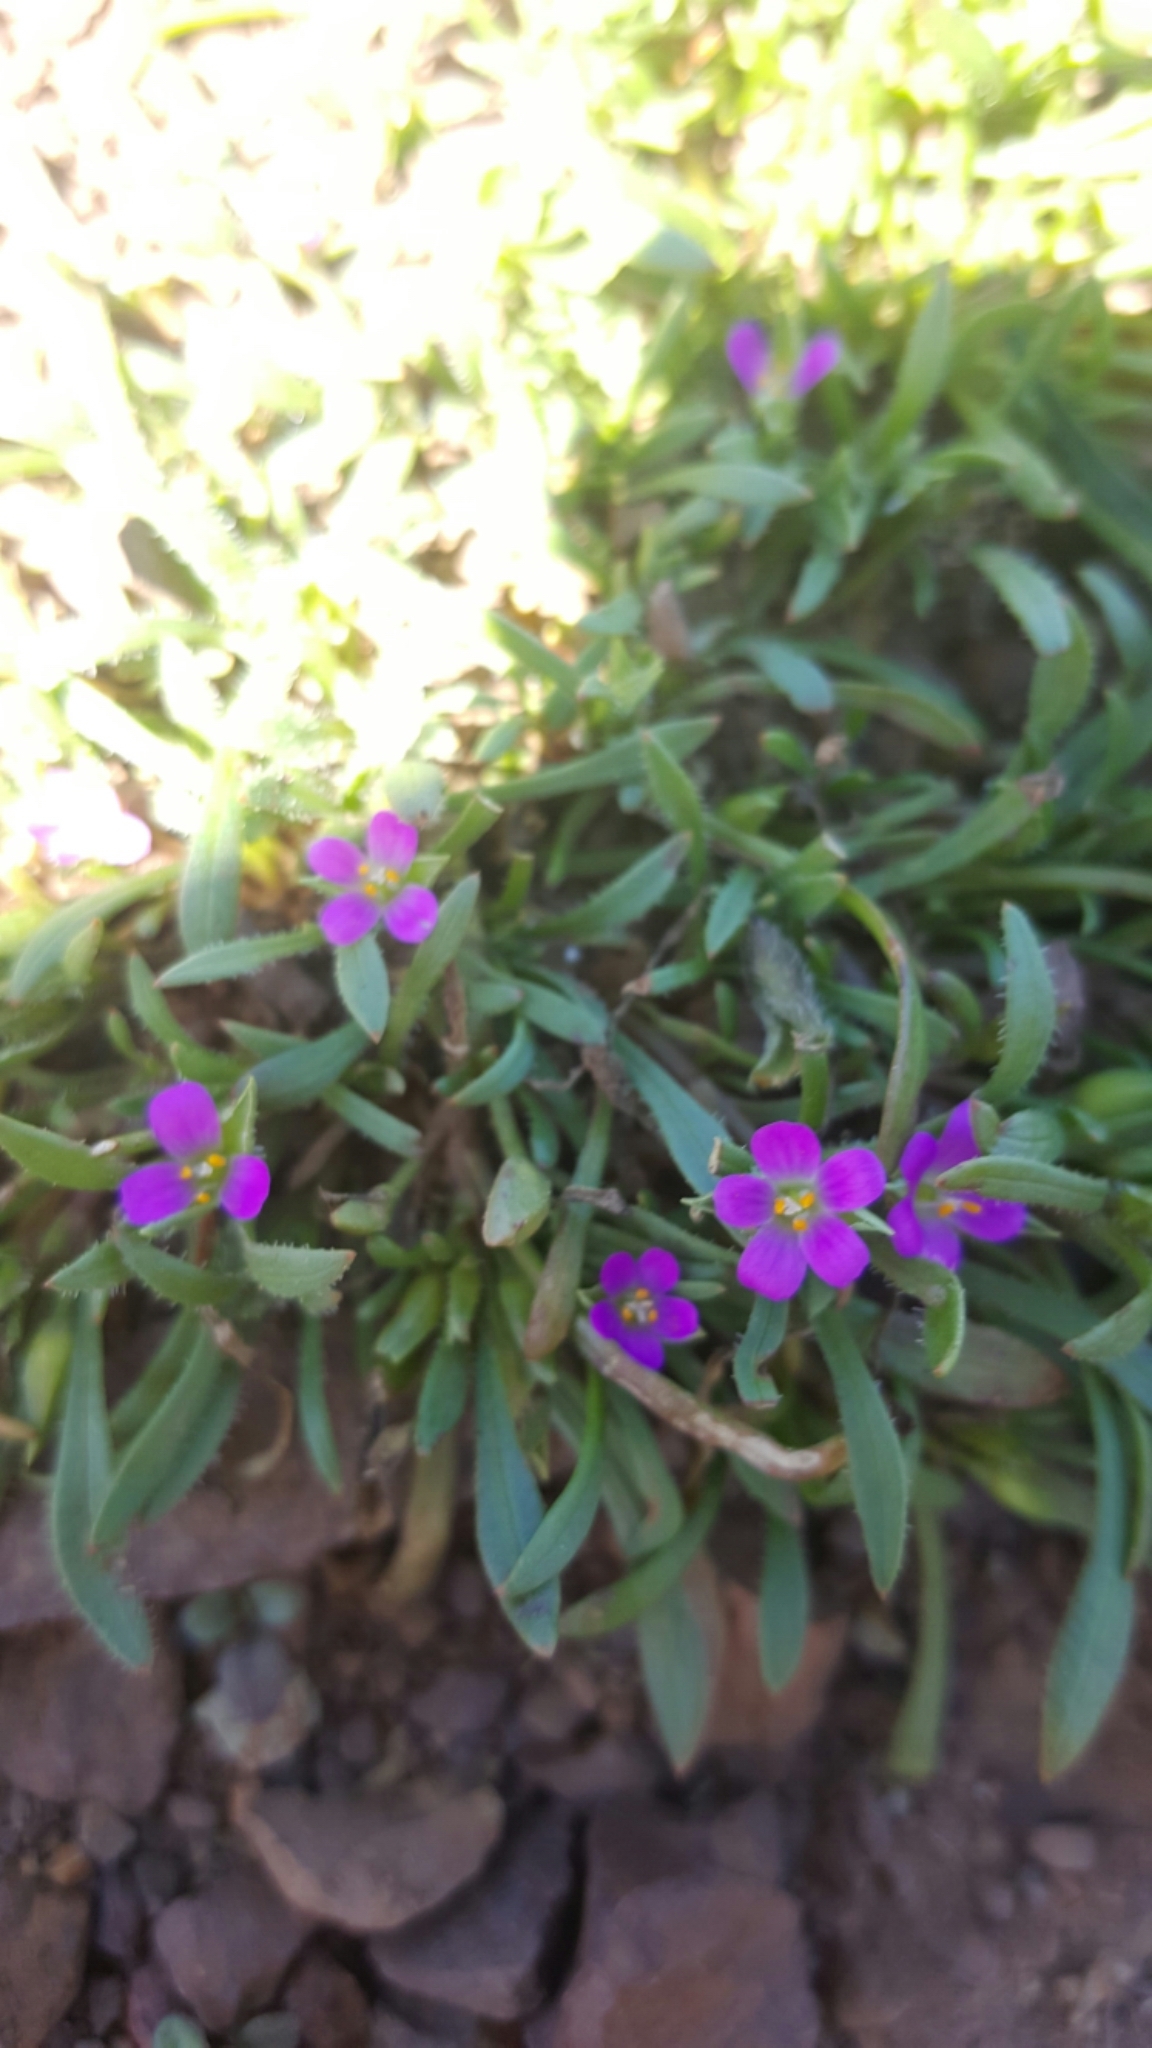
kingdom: Plantae
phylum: Tracheophyta
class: Magnoliopsida
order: Caryophyllales
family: Montiaceae
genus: Calandrinia
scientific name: Calandrinia menziesii
